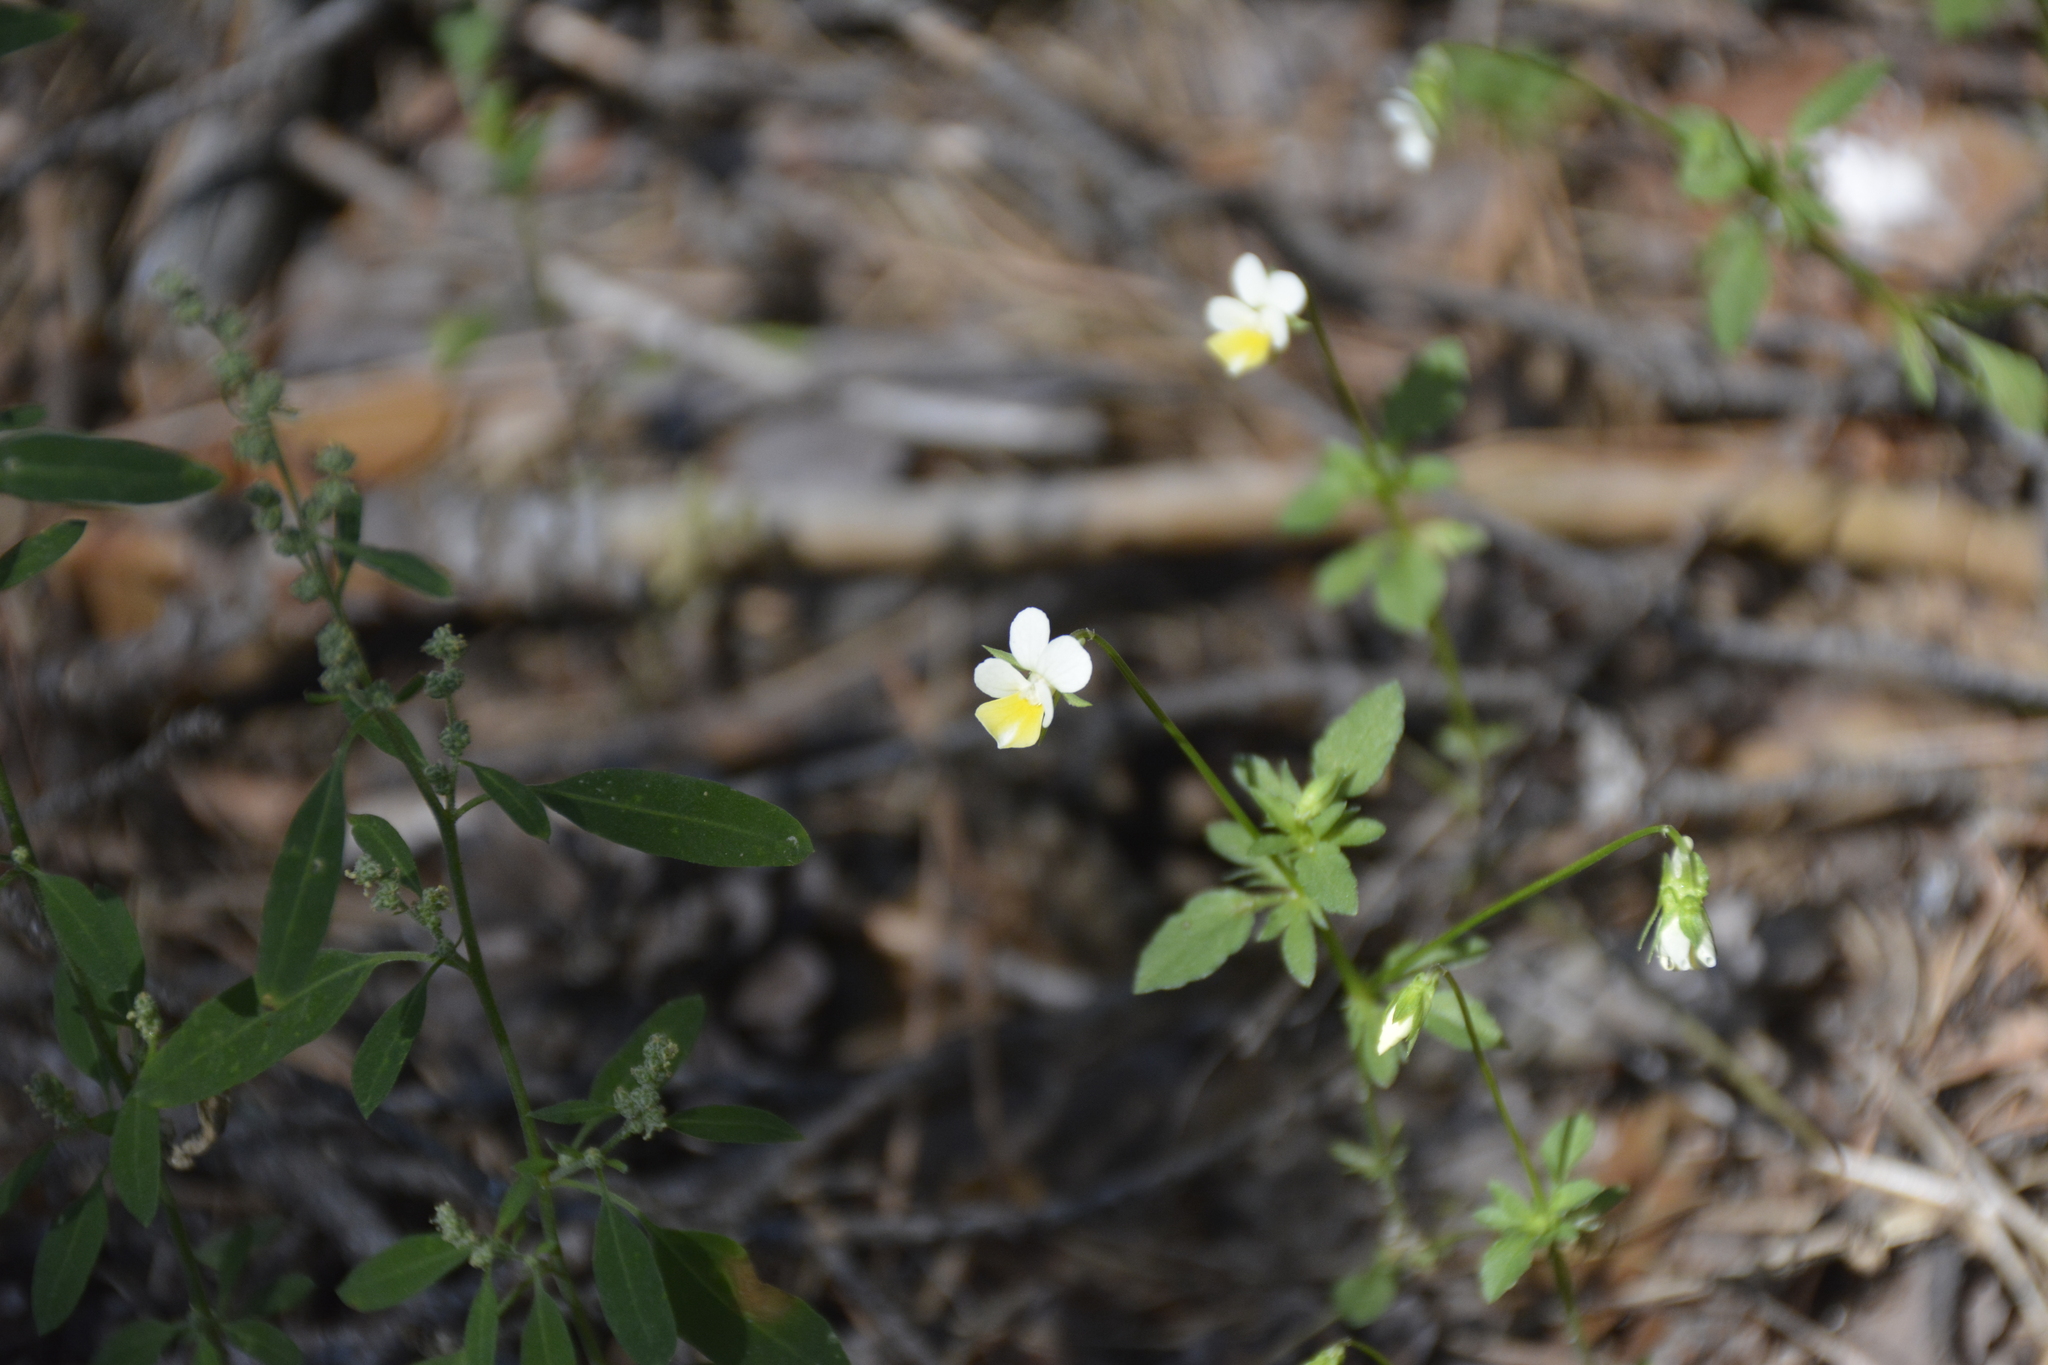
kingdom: Plantae
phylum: Tracheophyta
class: Magnoliopsida
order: Malpighiales
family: Violaceae
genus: Viola
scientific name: Viola arvensis
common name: Field pansy
